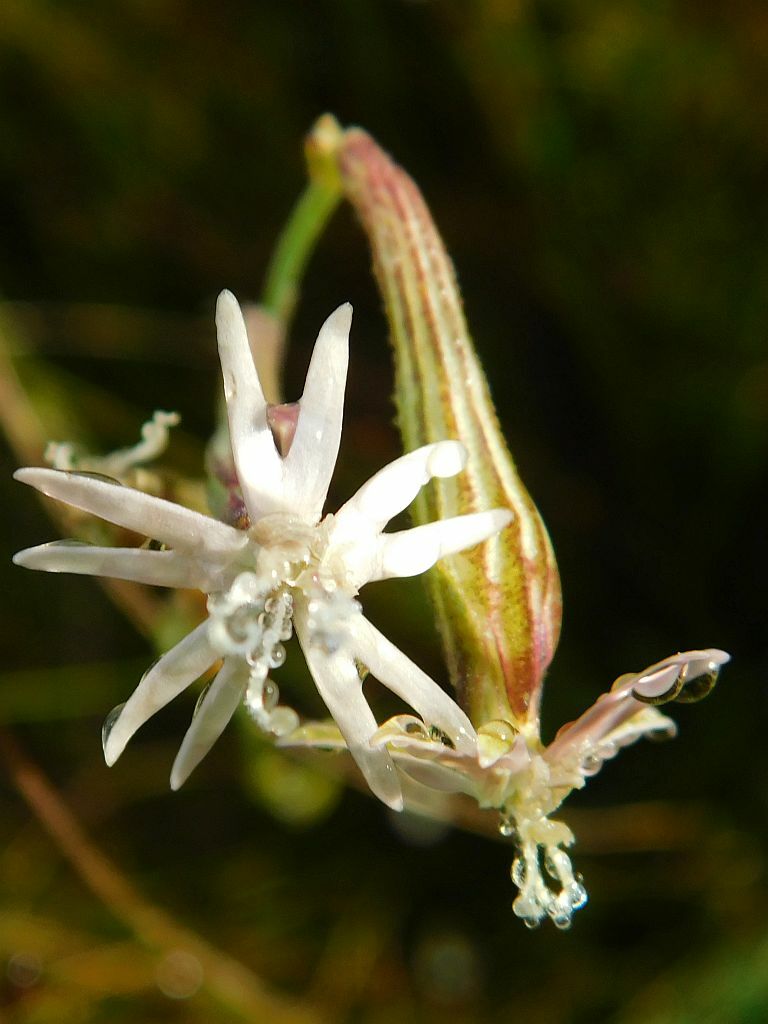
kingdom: Plantae
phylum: Tracheophyta
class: Magnoliopsida
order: Caryophyllales
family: Caryophyllaceae
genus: Silene
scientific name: Silene burchellii
